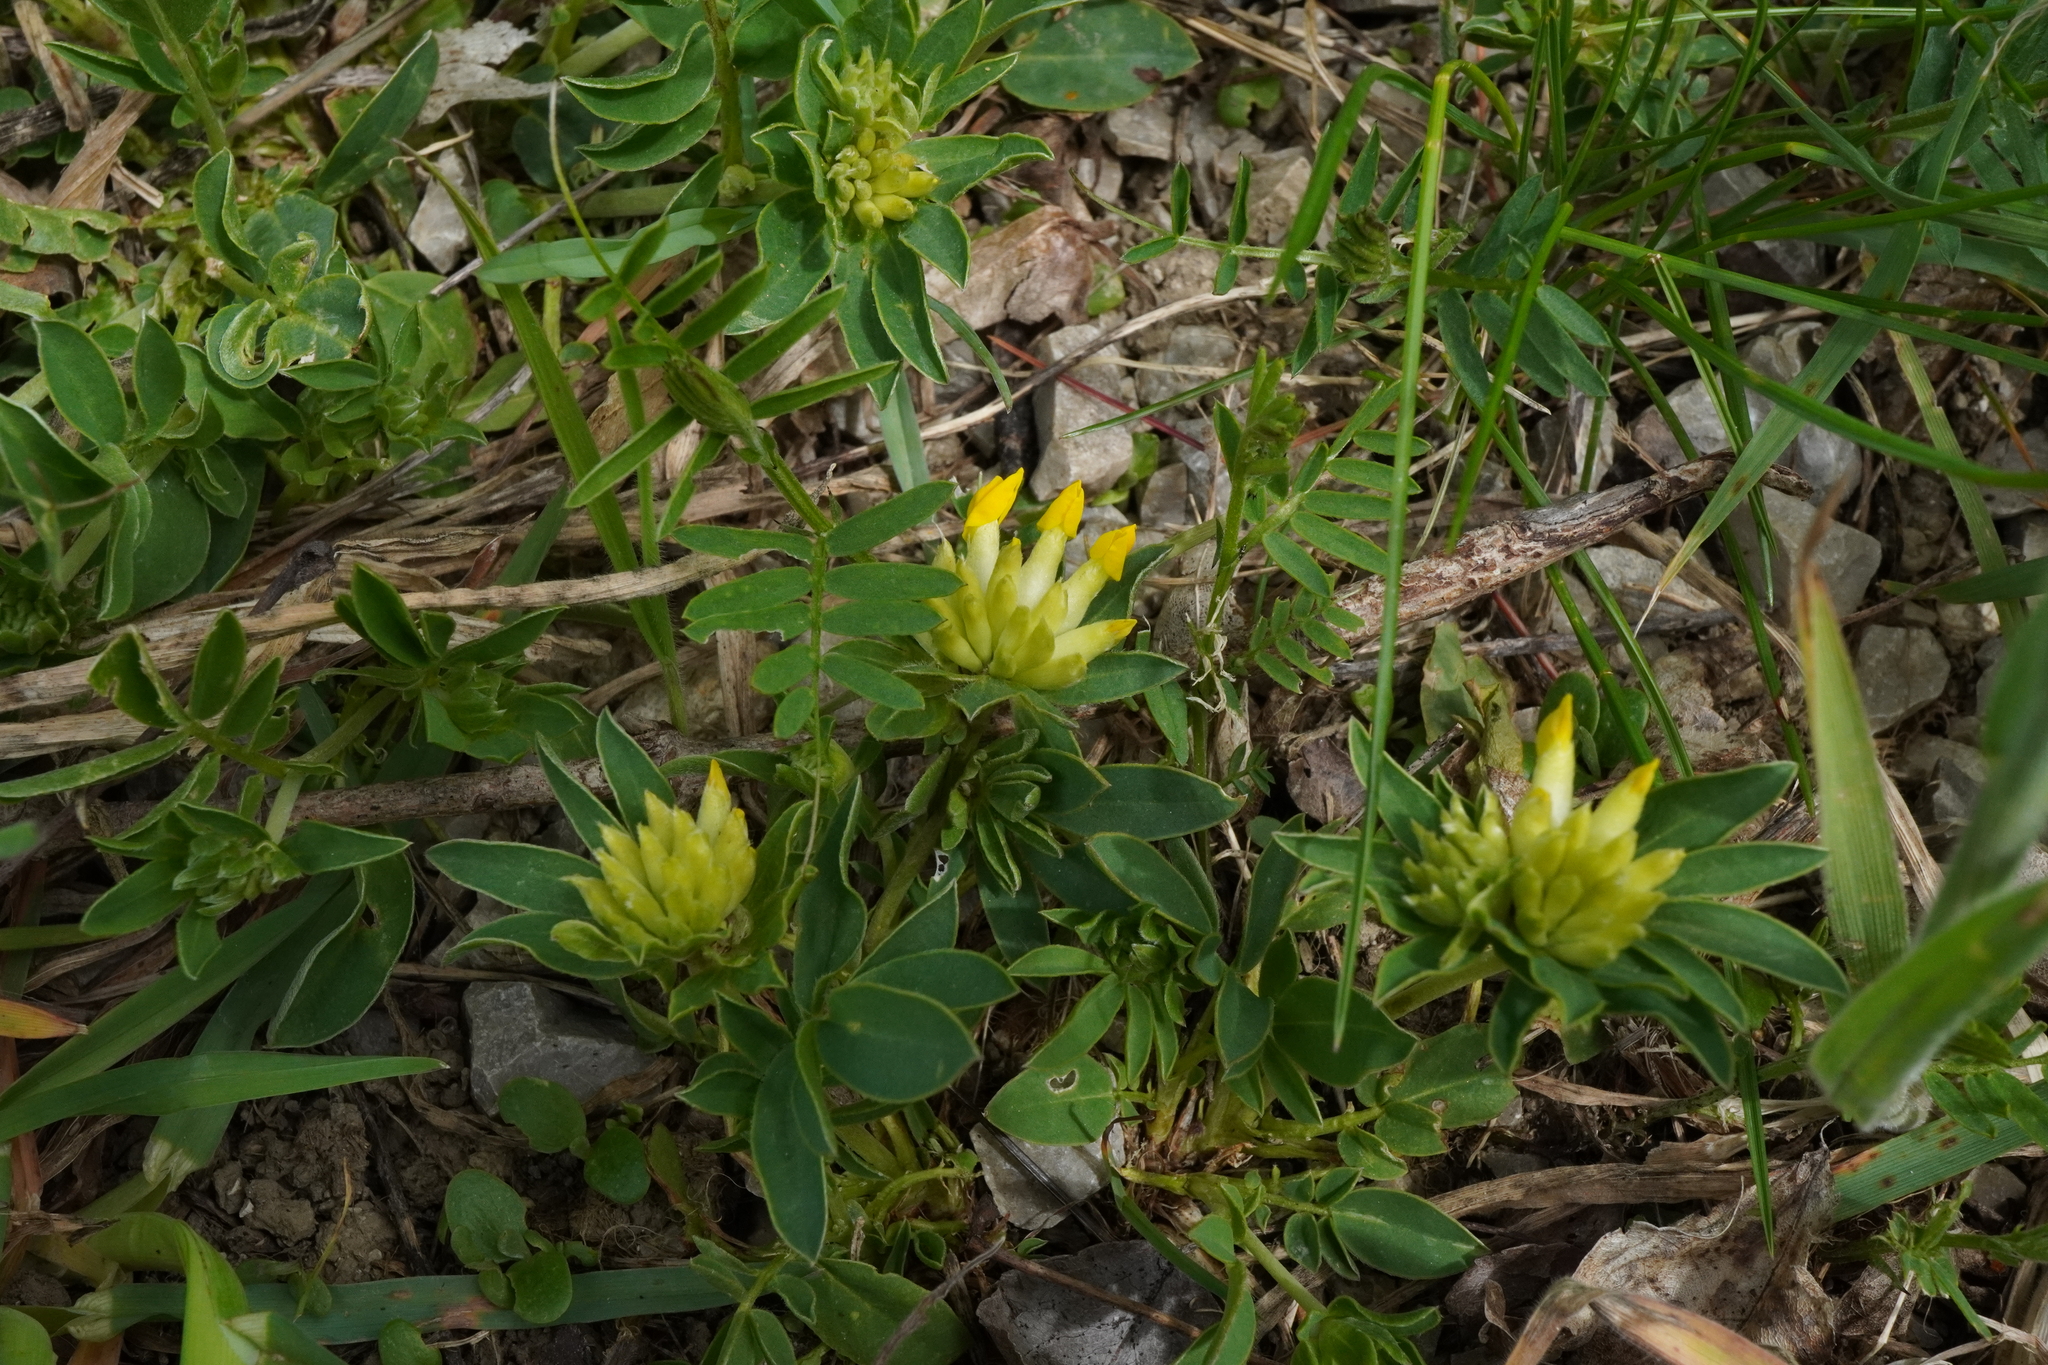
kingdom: Plantae
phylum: Tracheophyta
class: Magnoliopsida
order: Fabales
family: Fabaceae
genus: Anthyllis
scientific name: Anthyllis vulneraria
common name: Kidney vetch
